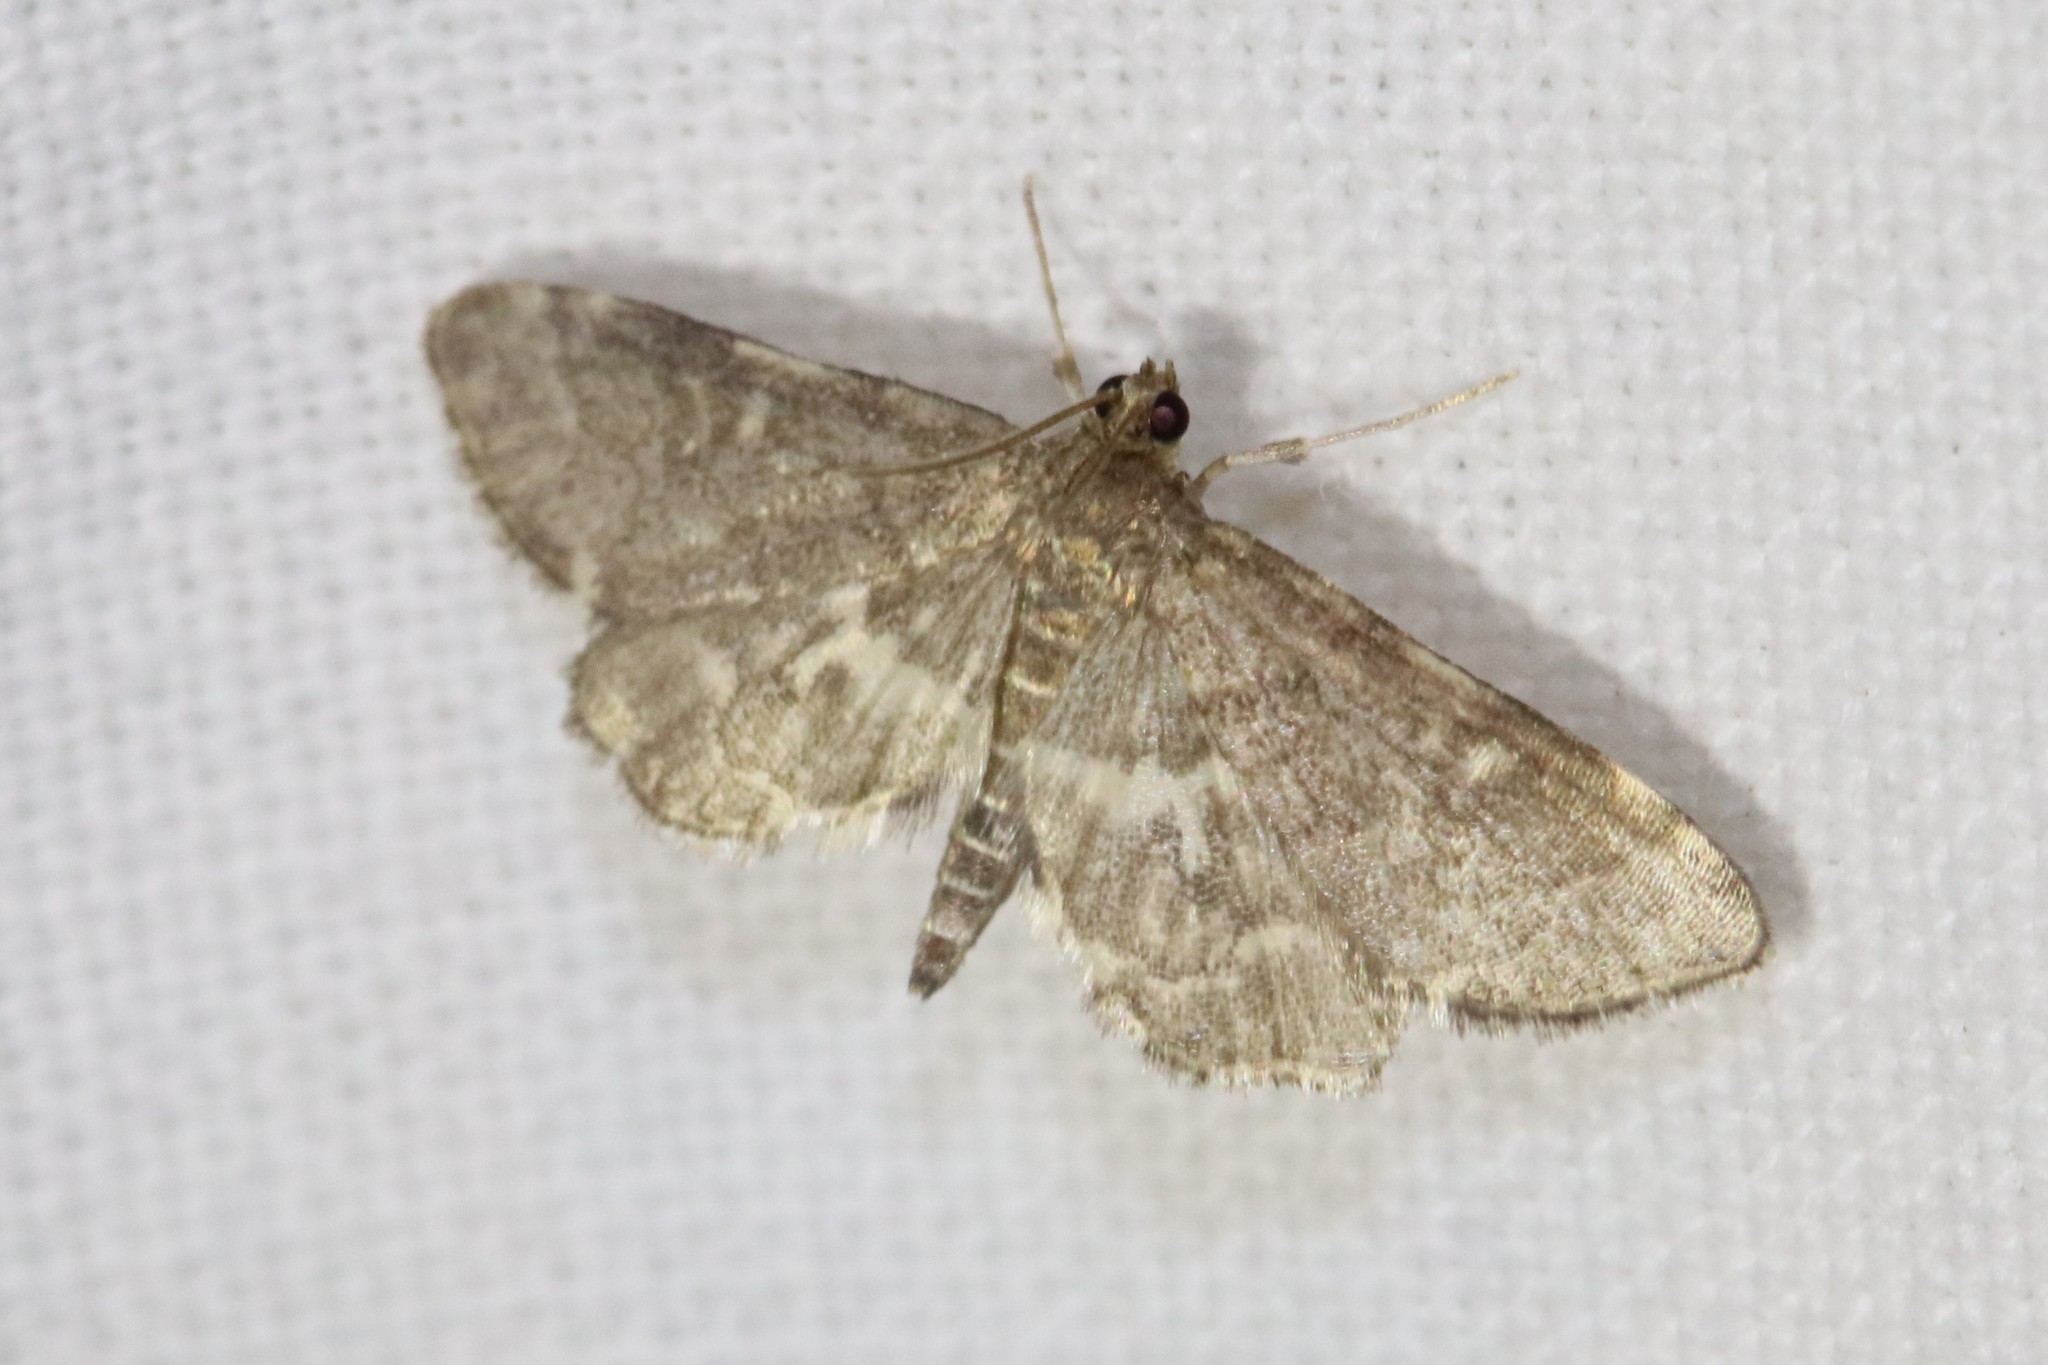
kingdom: Animalia
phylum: Arthropoda
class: Insecta
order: Lepidoptera
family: Crambidae
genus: Anageshna
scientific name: Anageshna primordialis
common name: Yellow-spotted webworm moth
